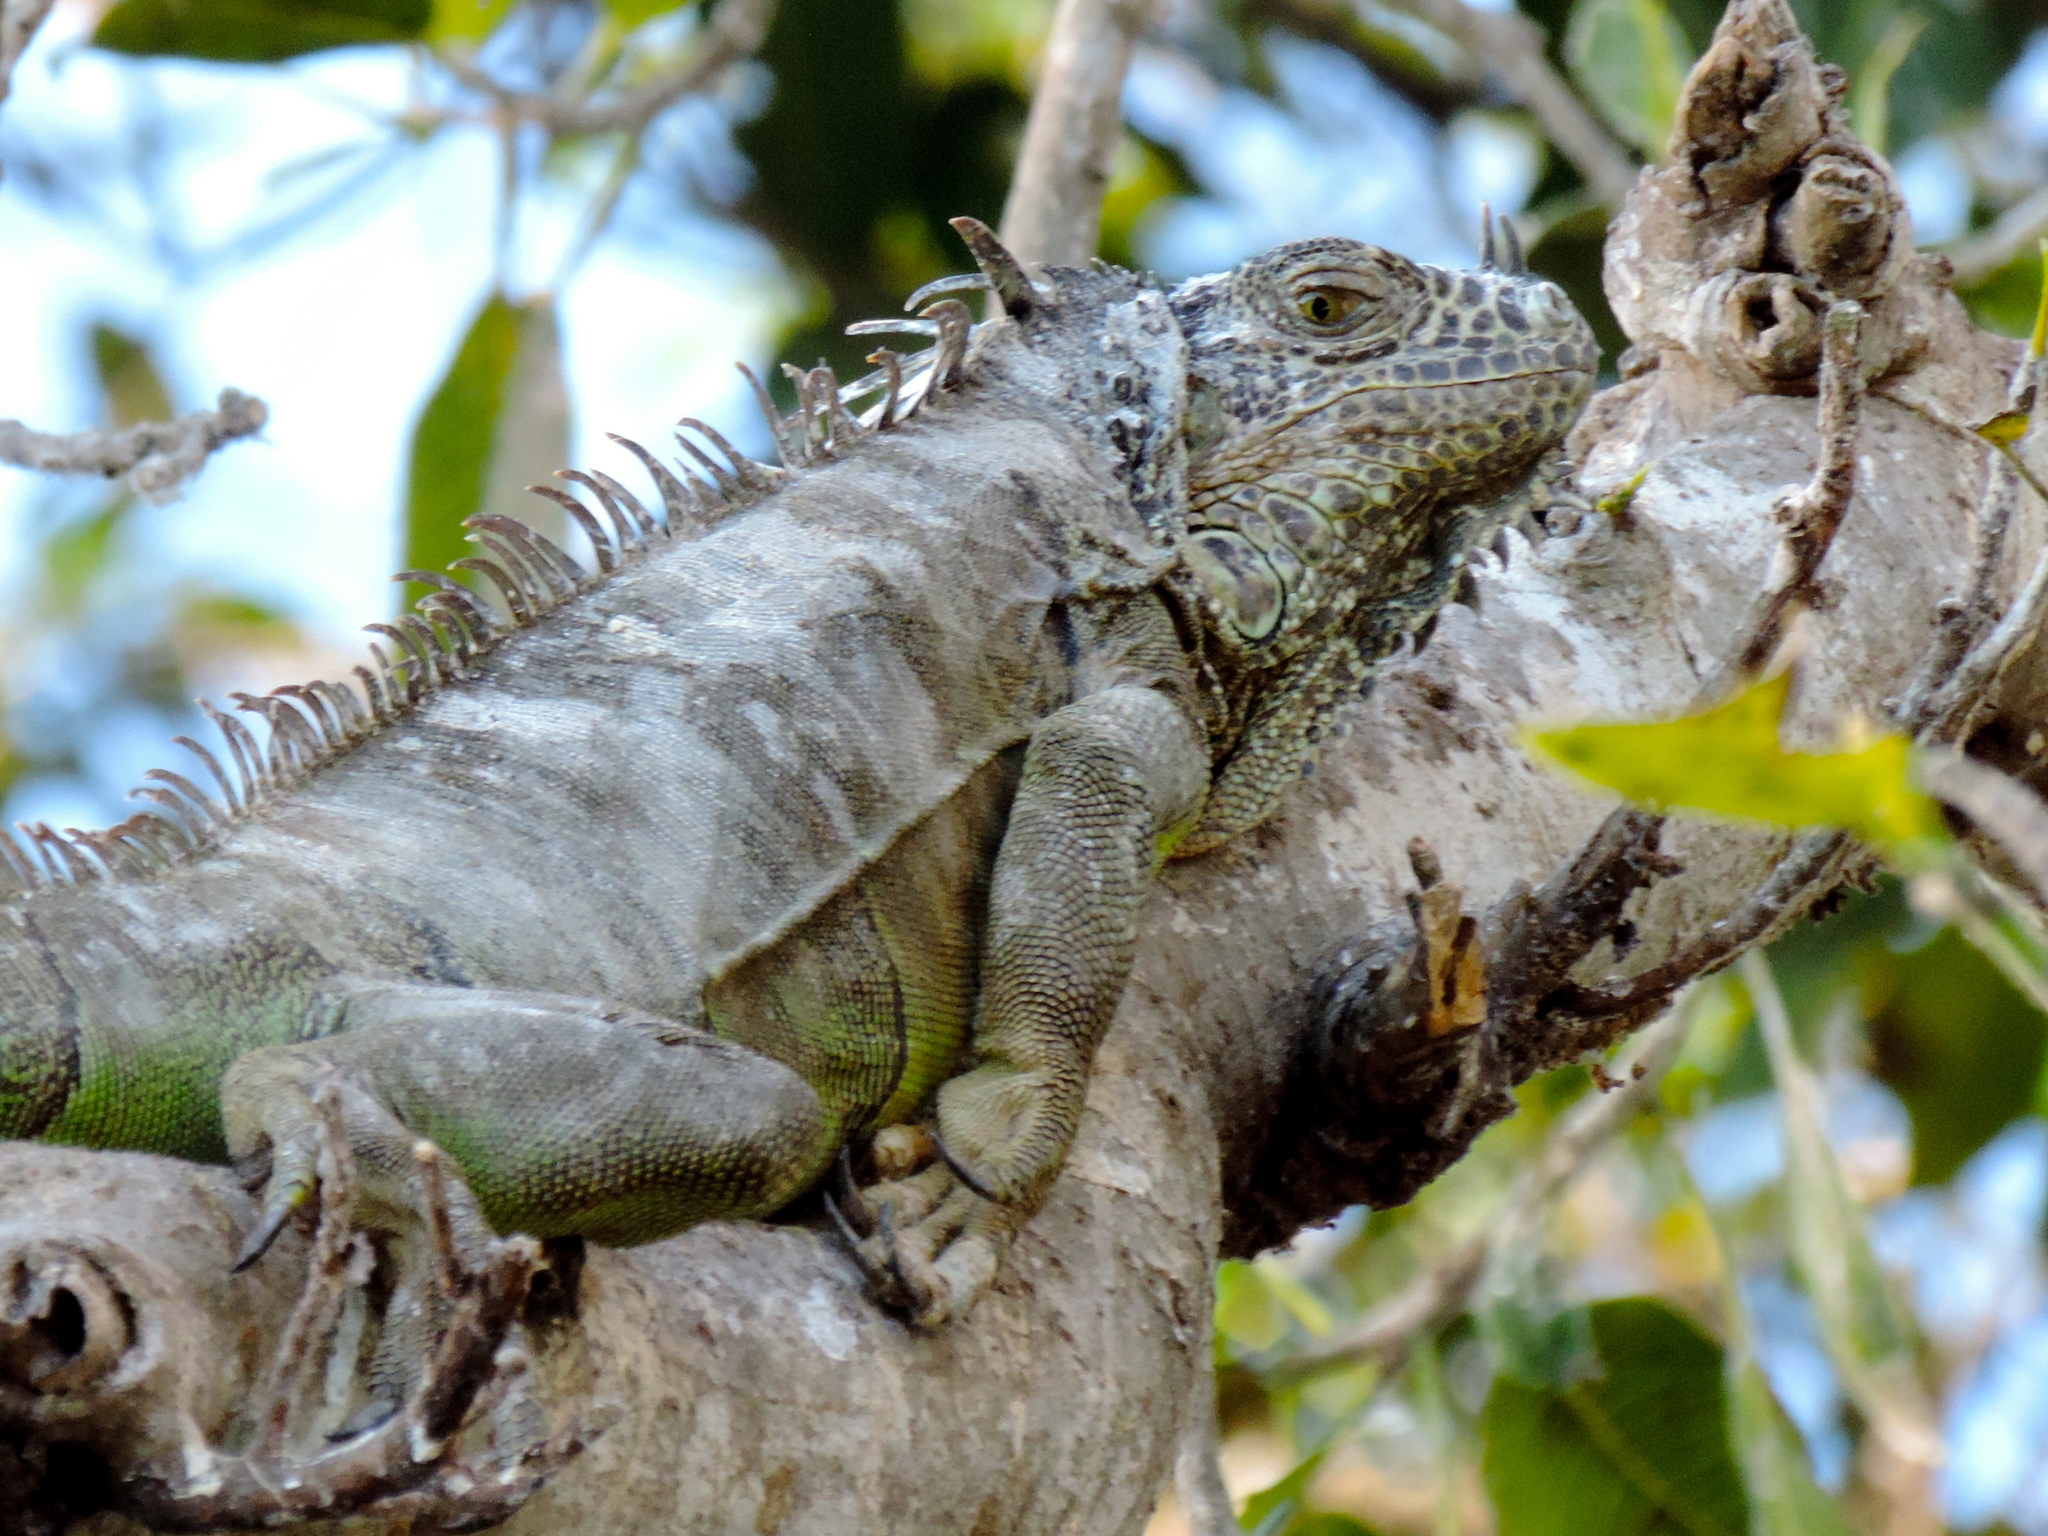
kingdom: Animalia
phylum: Chordata
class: Squamata
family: Iguanidae
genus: Iguana
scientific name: Iguana iguana
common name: Green iguana
